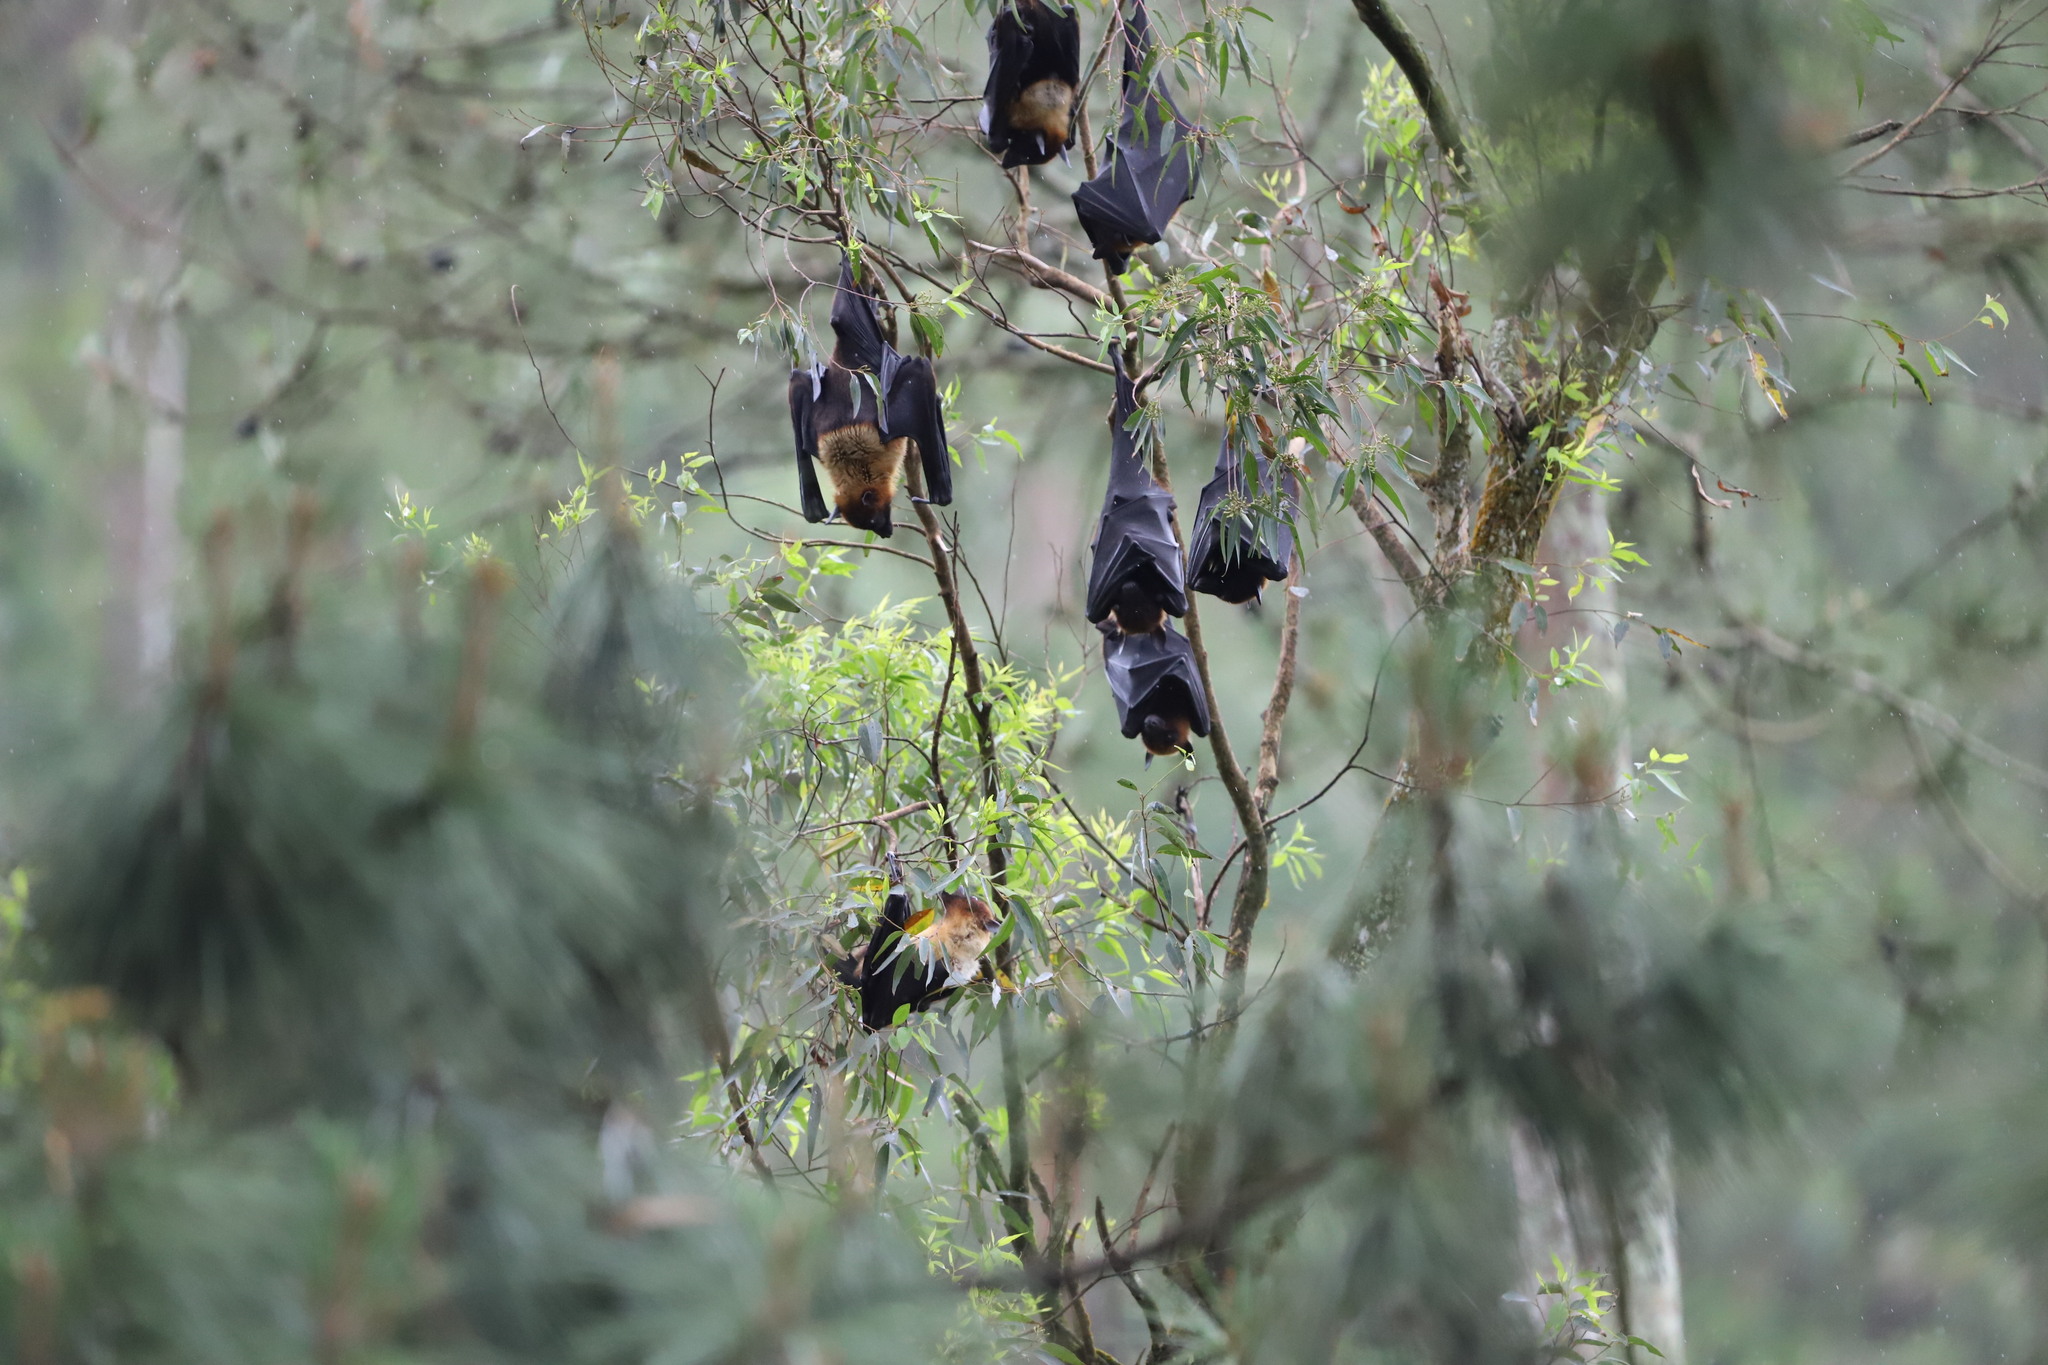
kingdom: Animalia
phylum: Chordata
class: Mammalia
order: Chiroptera
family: Pteropodidae
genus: Pteropus
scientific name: Pteropus vampyrus
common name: Large flying fox
